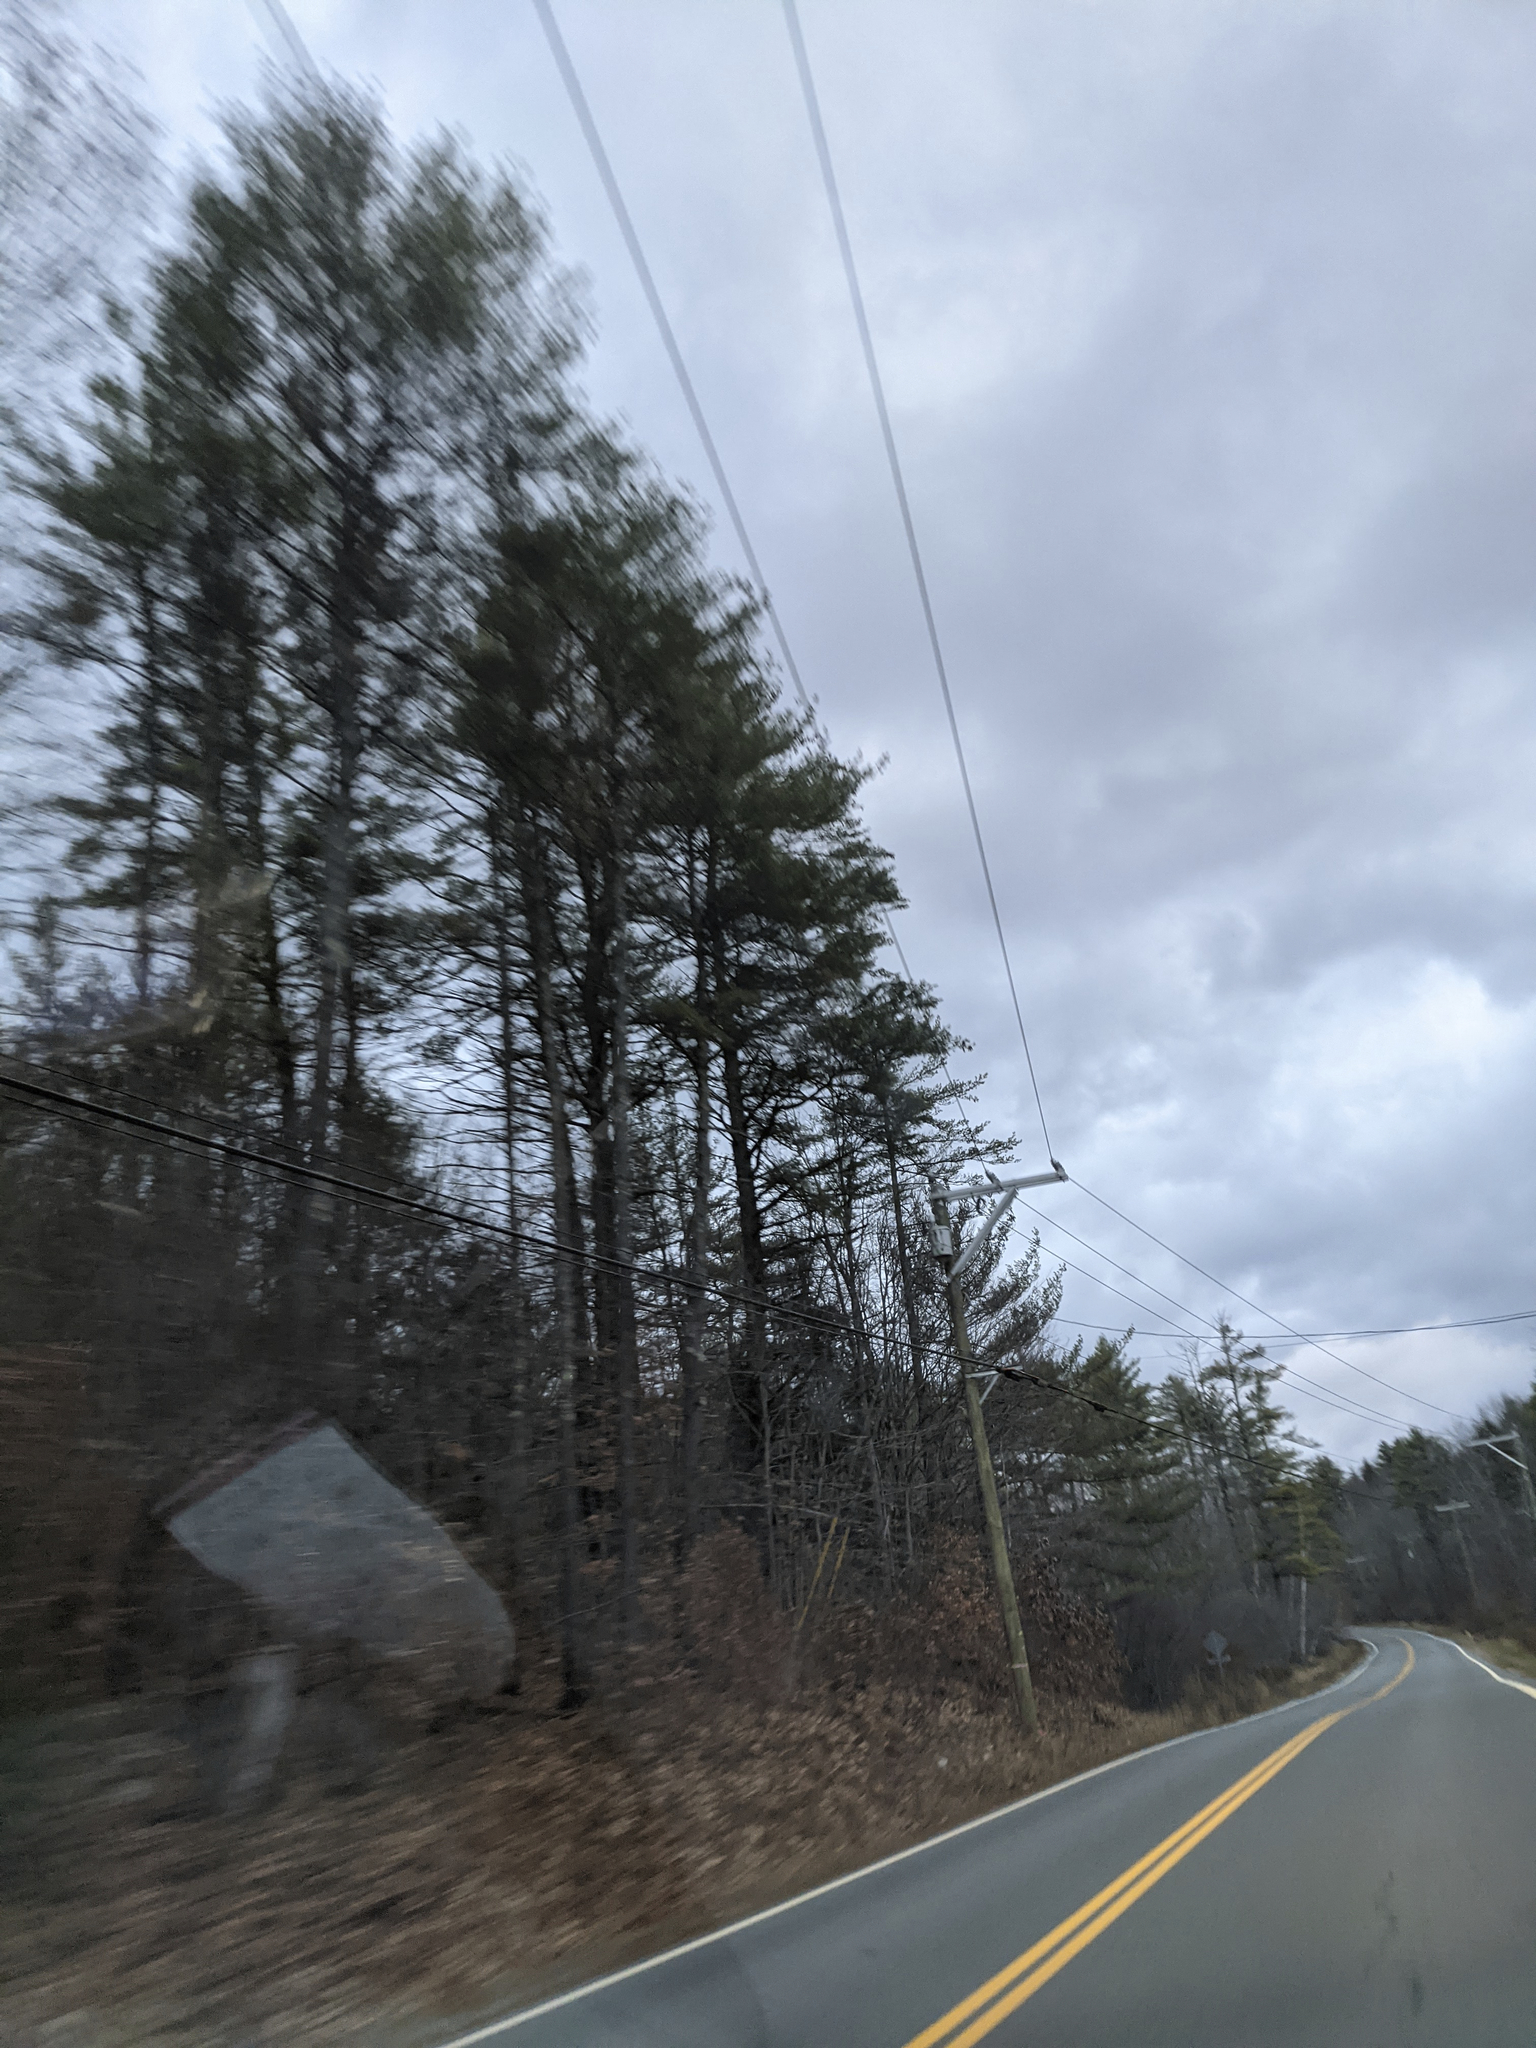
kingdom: Plantae
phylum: Tracheophyta
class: Pinopsida
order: Pinales
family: Pinaceae
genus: Pinus
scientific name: Pinus strobus
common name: Weymouth pine
